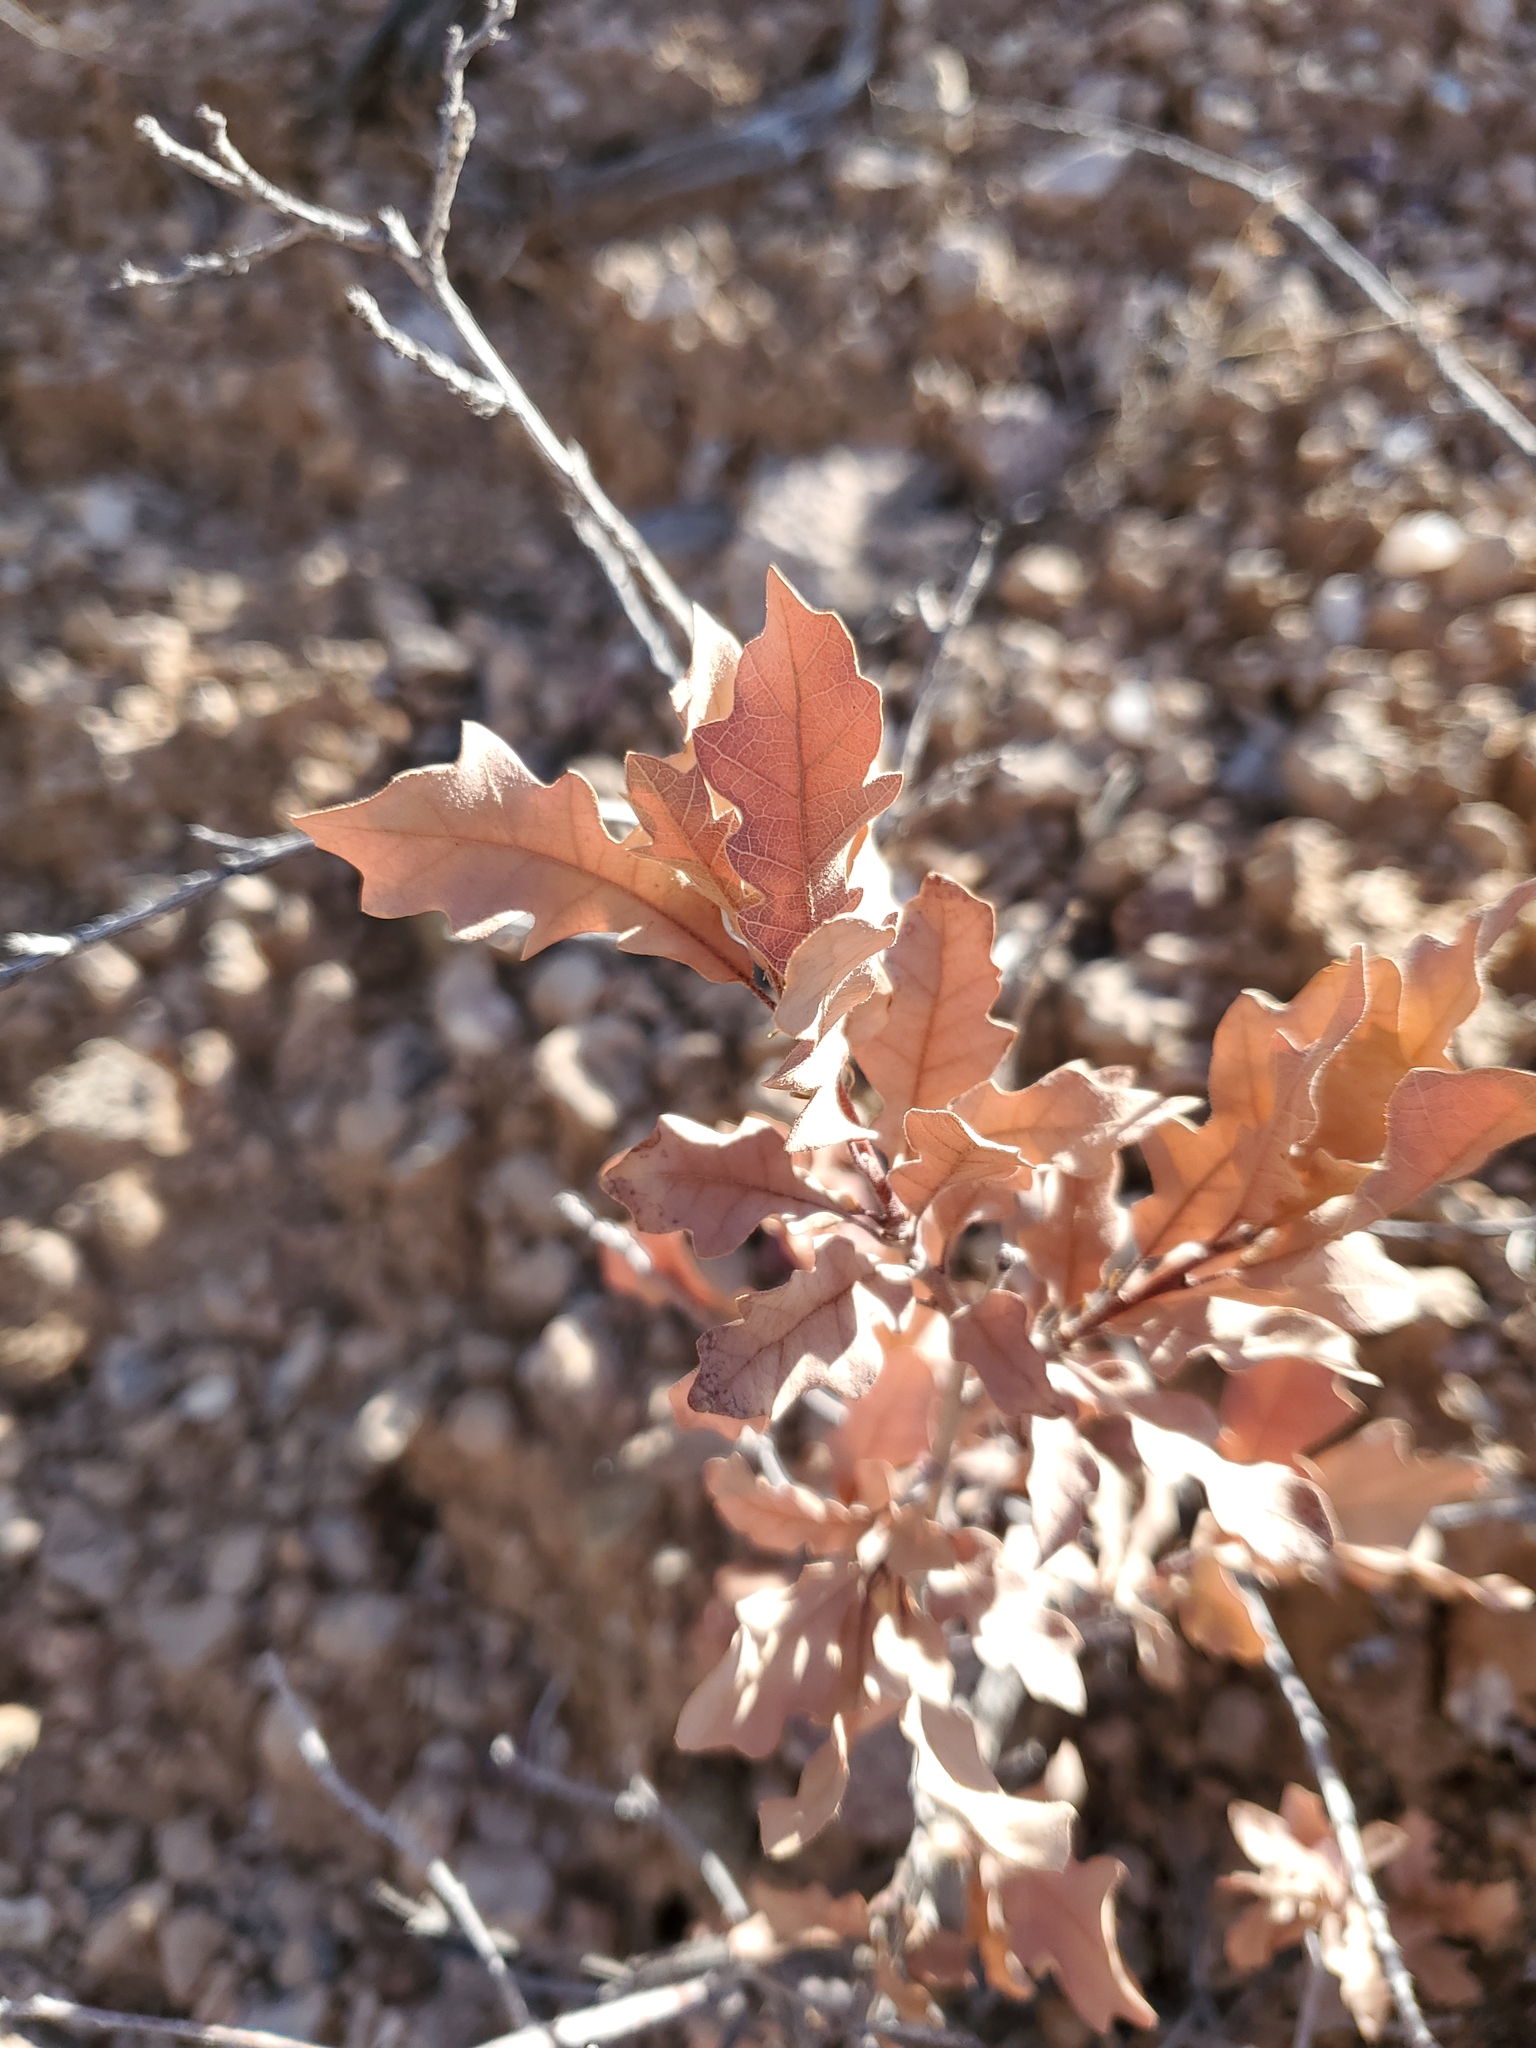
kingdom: Plantae
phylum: Tracheophyta
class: Magnoliopsida
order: Fagales
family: Fagaceae
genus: Quercus
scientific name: Quercus undulata
